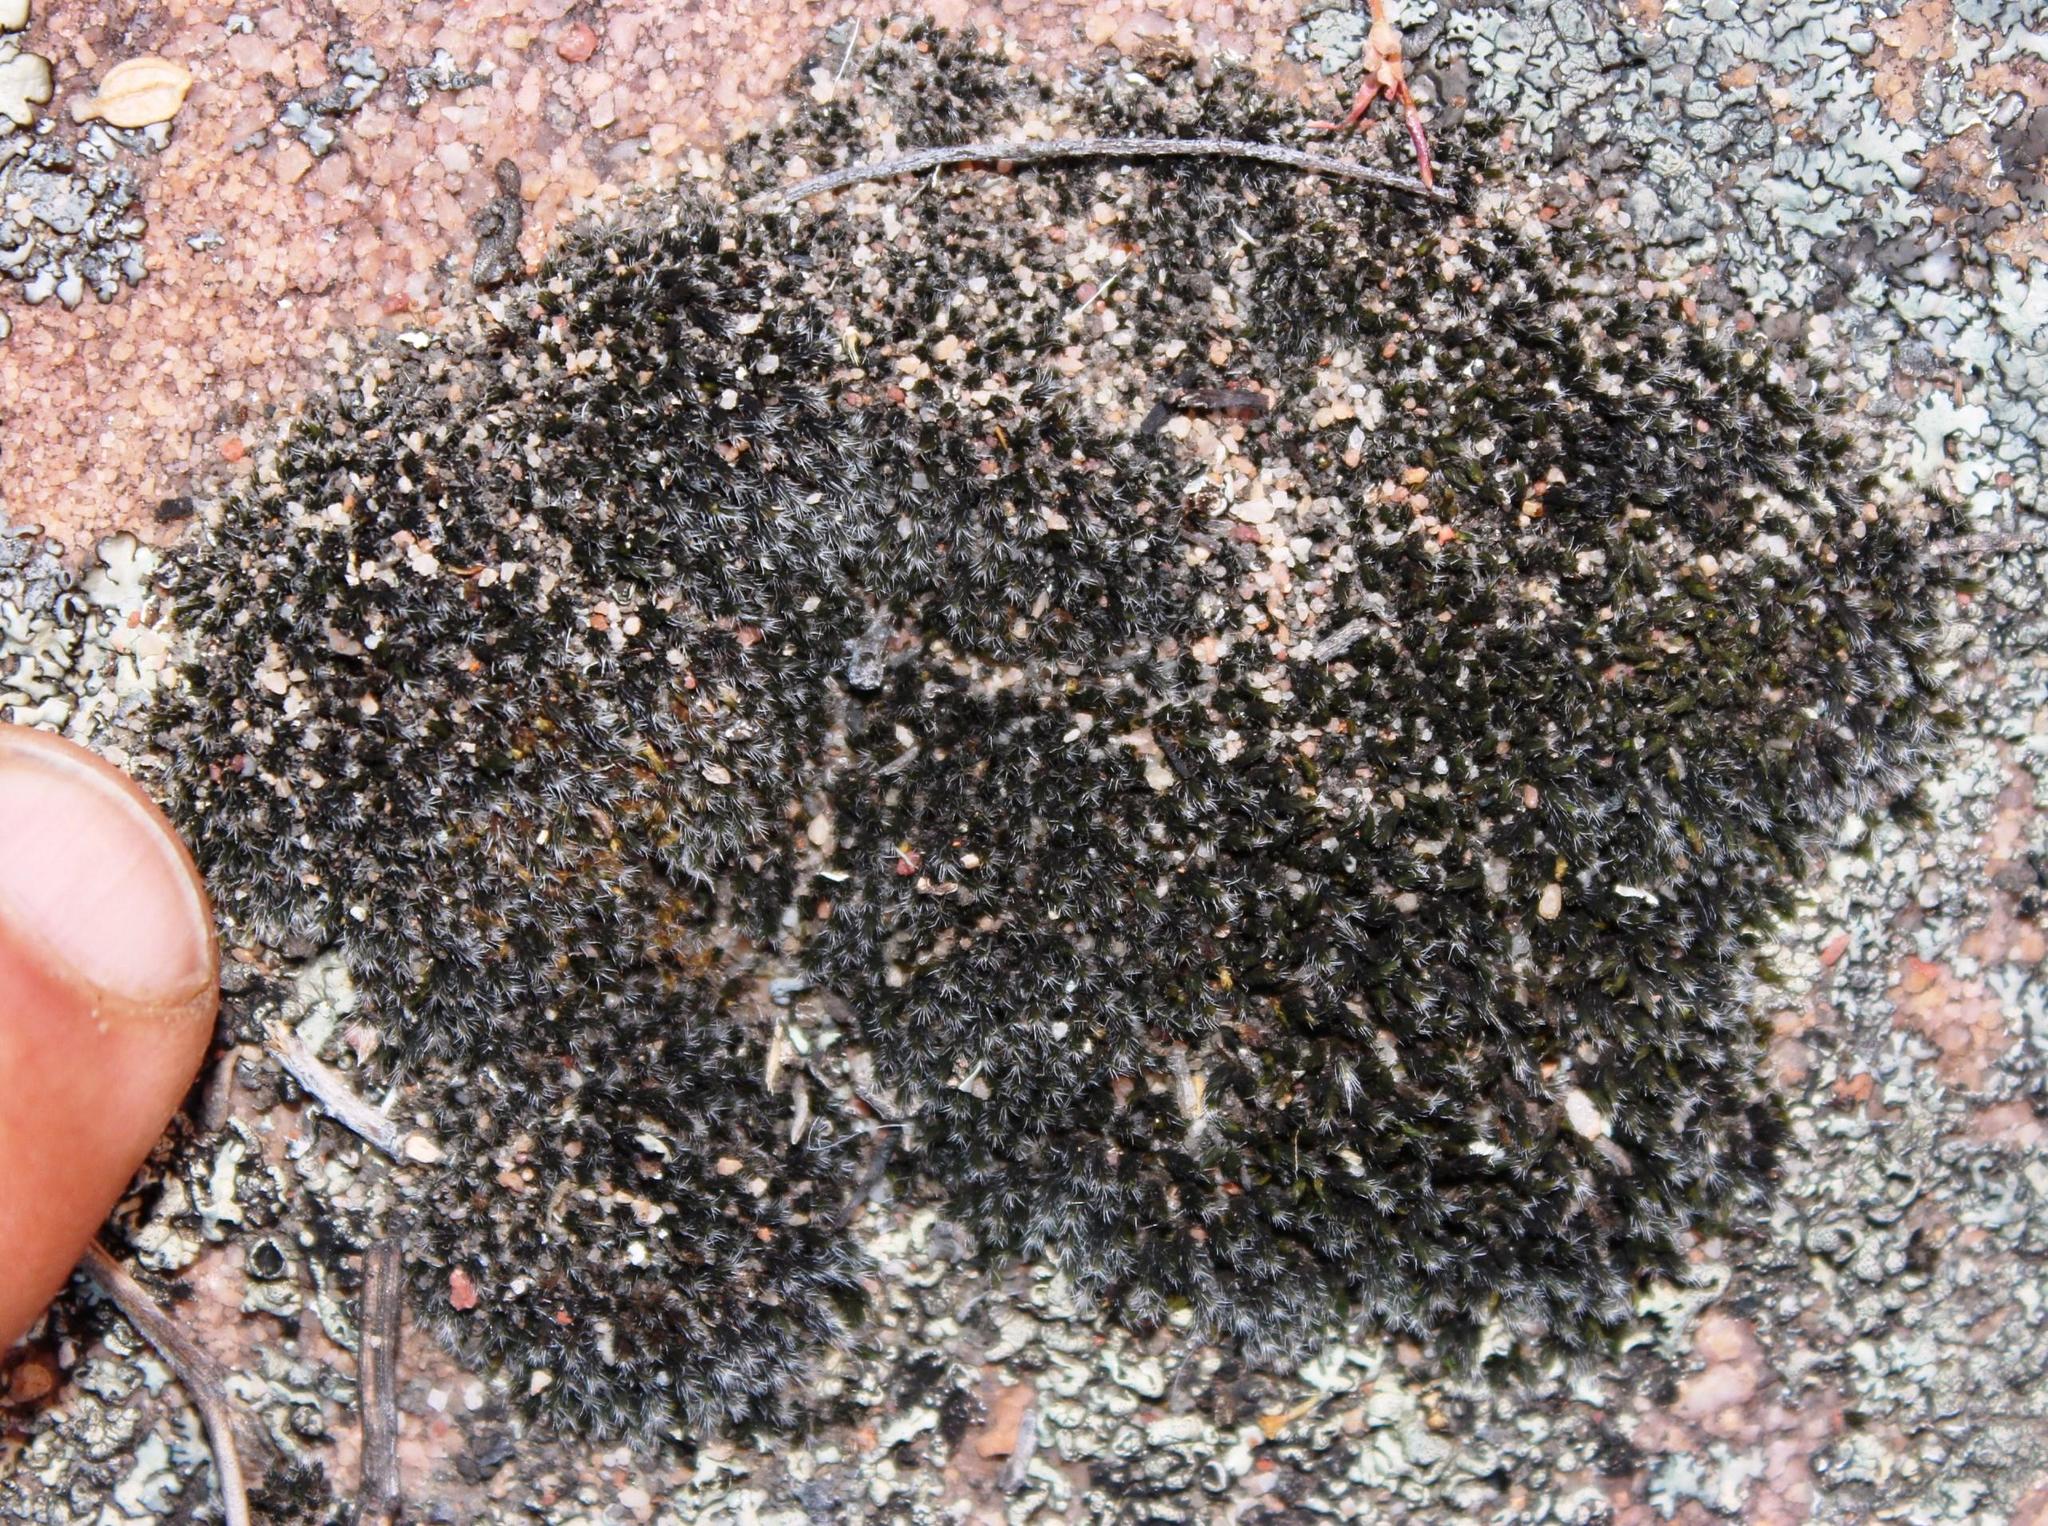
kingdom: Plantae
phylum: Bryophyta
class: Bryopsida
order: Grimmiales
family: Grimmiaceae
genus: Grimmia
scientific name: Grimmia laevigata
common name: Hoary grimmia
